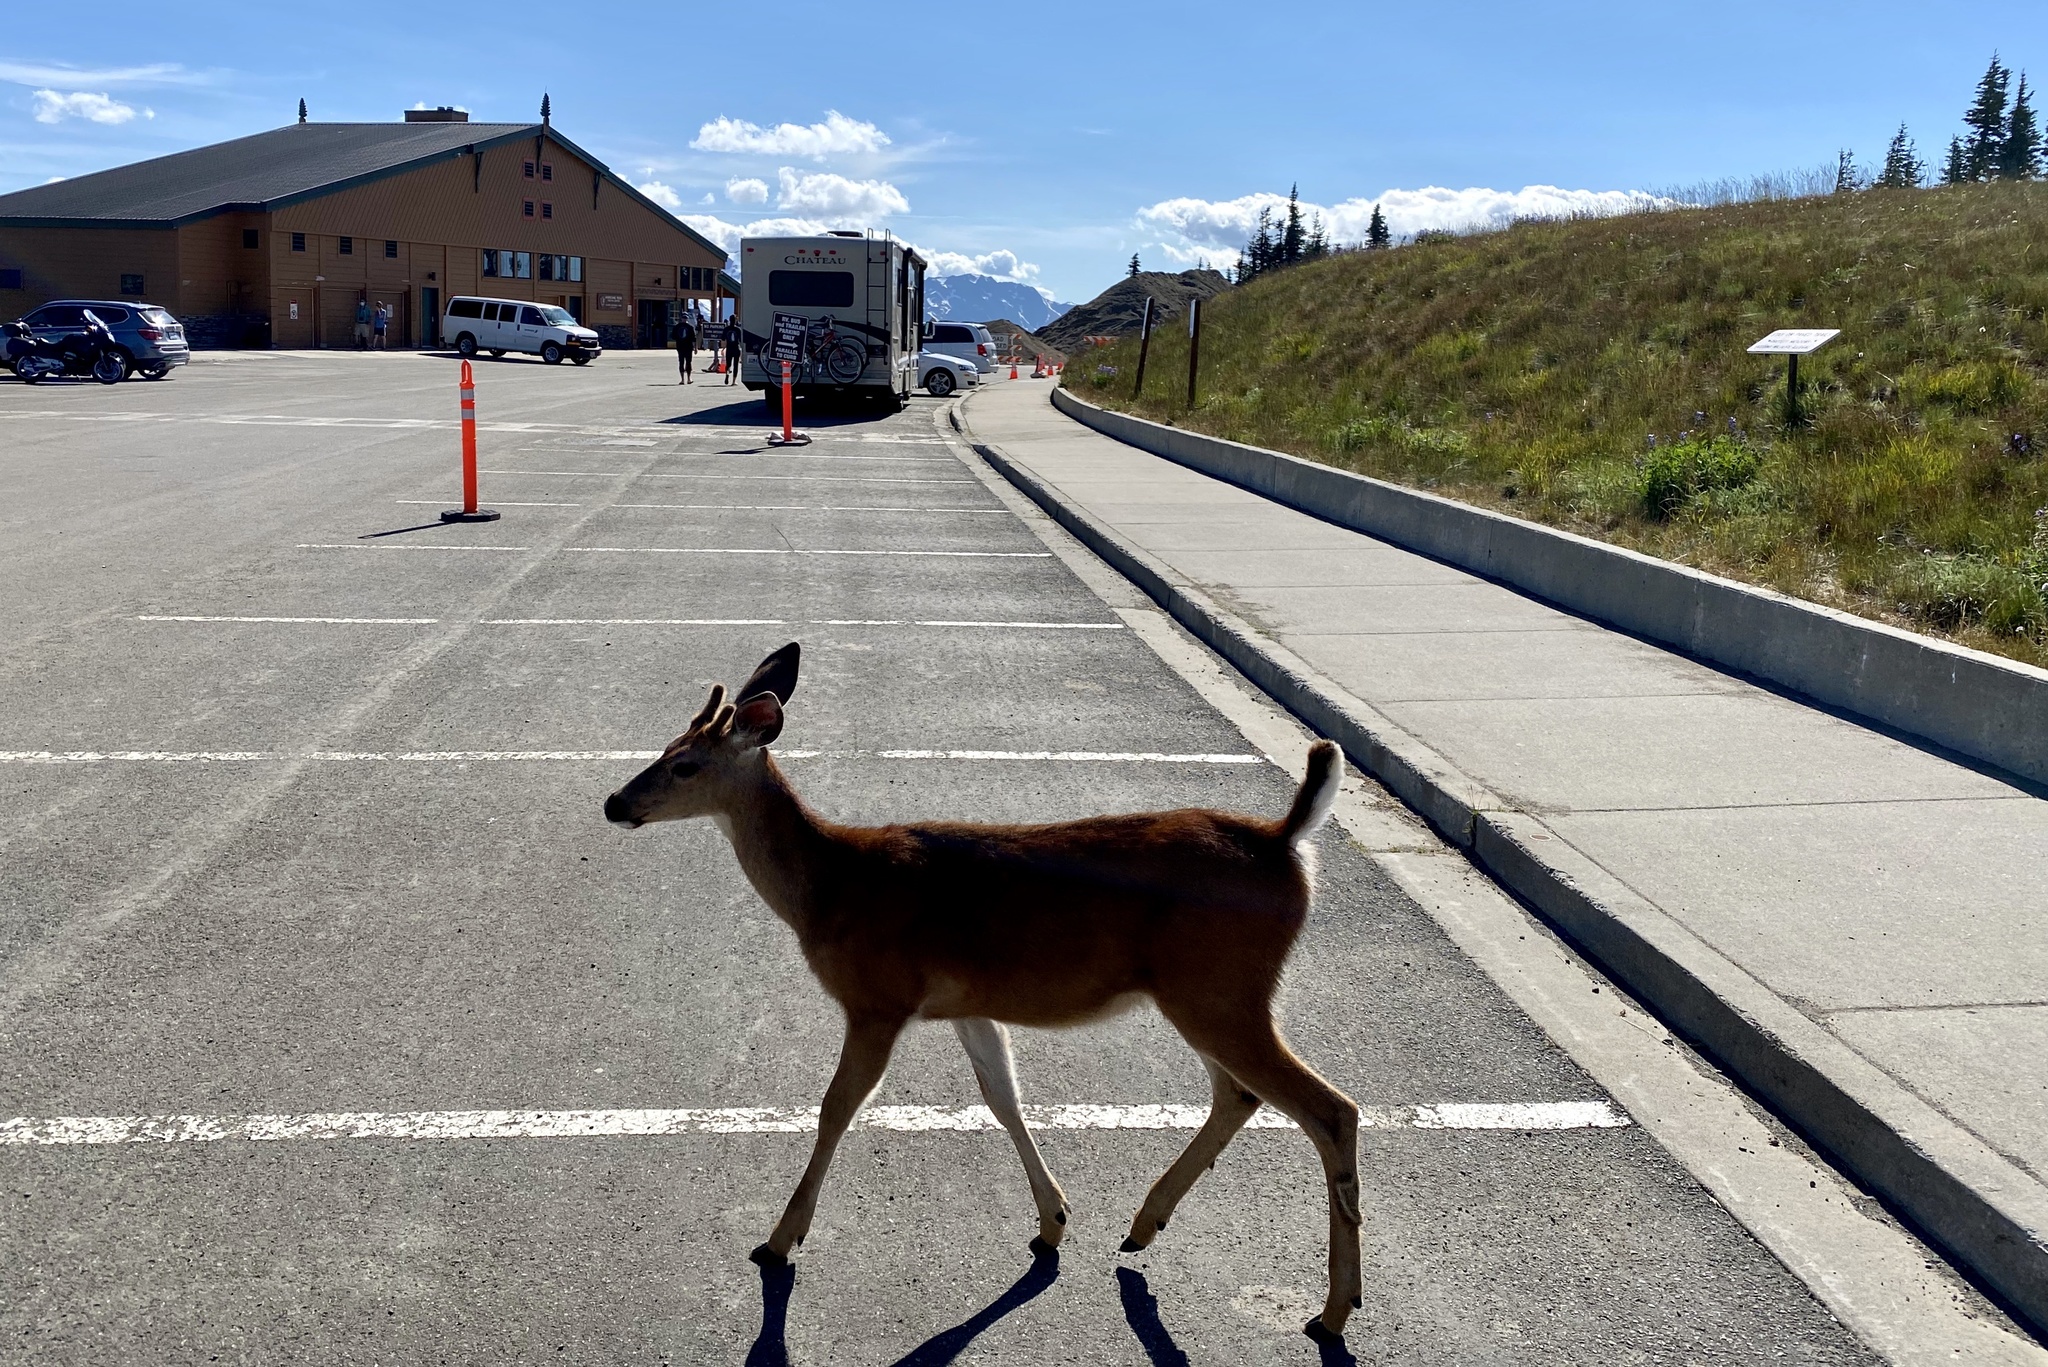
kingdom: Animalia
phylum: Chordata
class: Mammalia
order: Artiodactyla
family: Cervidae
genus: Odocoileus
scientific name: Odocoileus hemionus
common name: Mule deer
